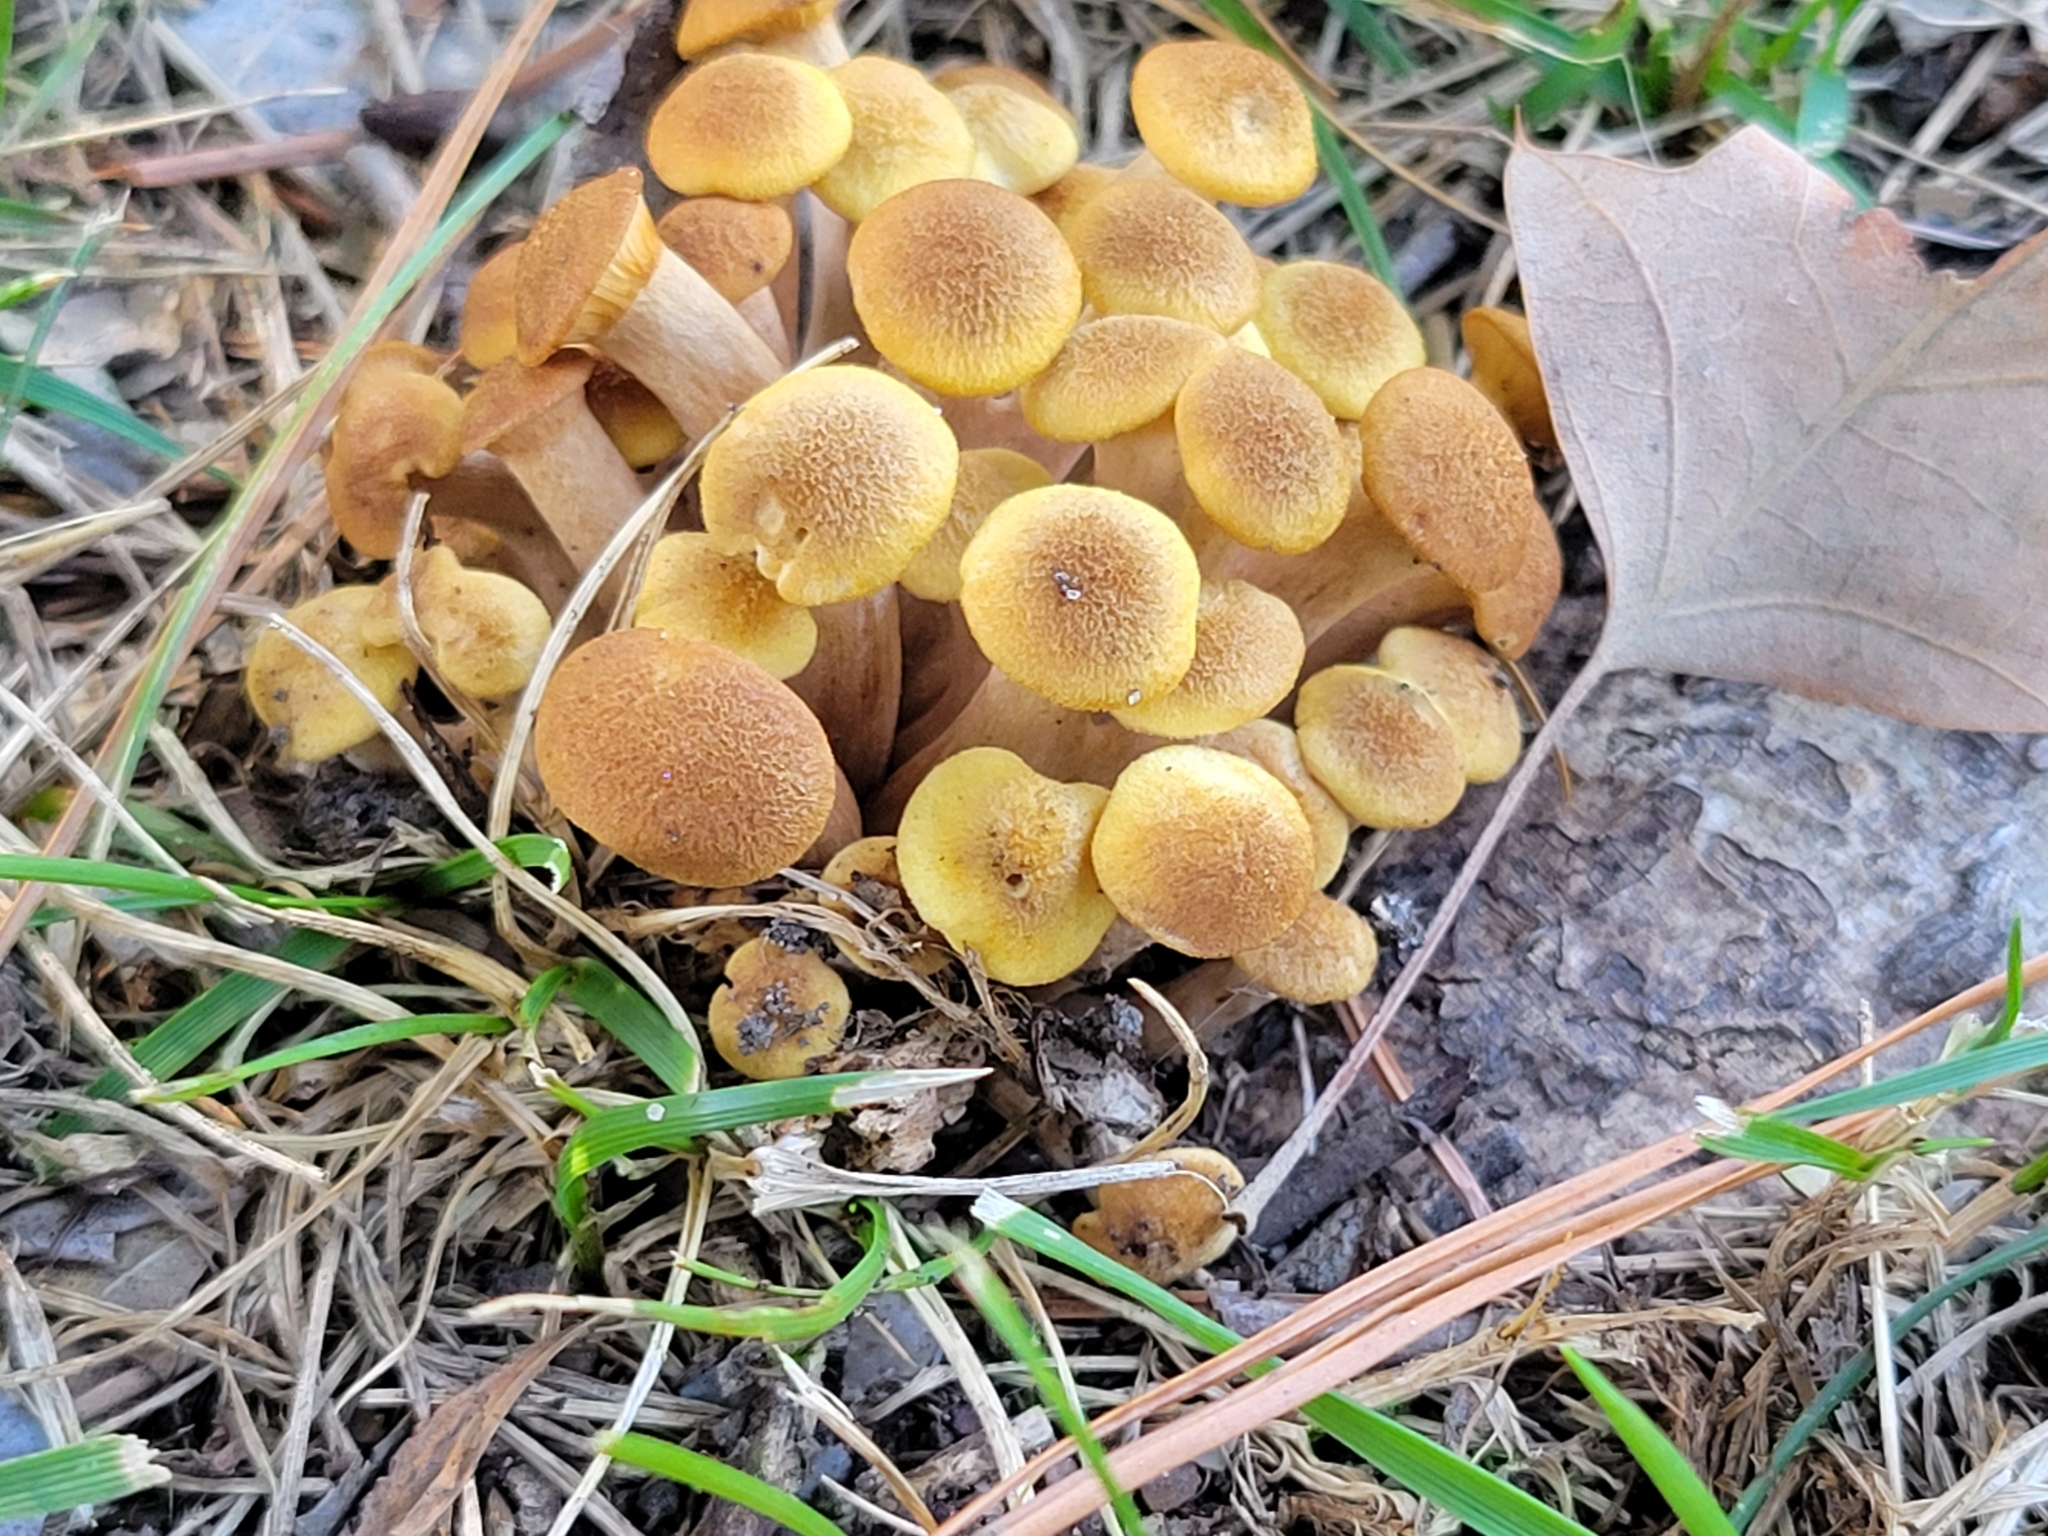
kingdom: Fungi
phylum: Basidiomycota
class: Agaricomycetes
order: Agaricales
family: Physalacriaceae
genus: Desarmillaria
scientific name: Desarmillaria caespitosa
